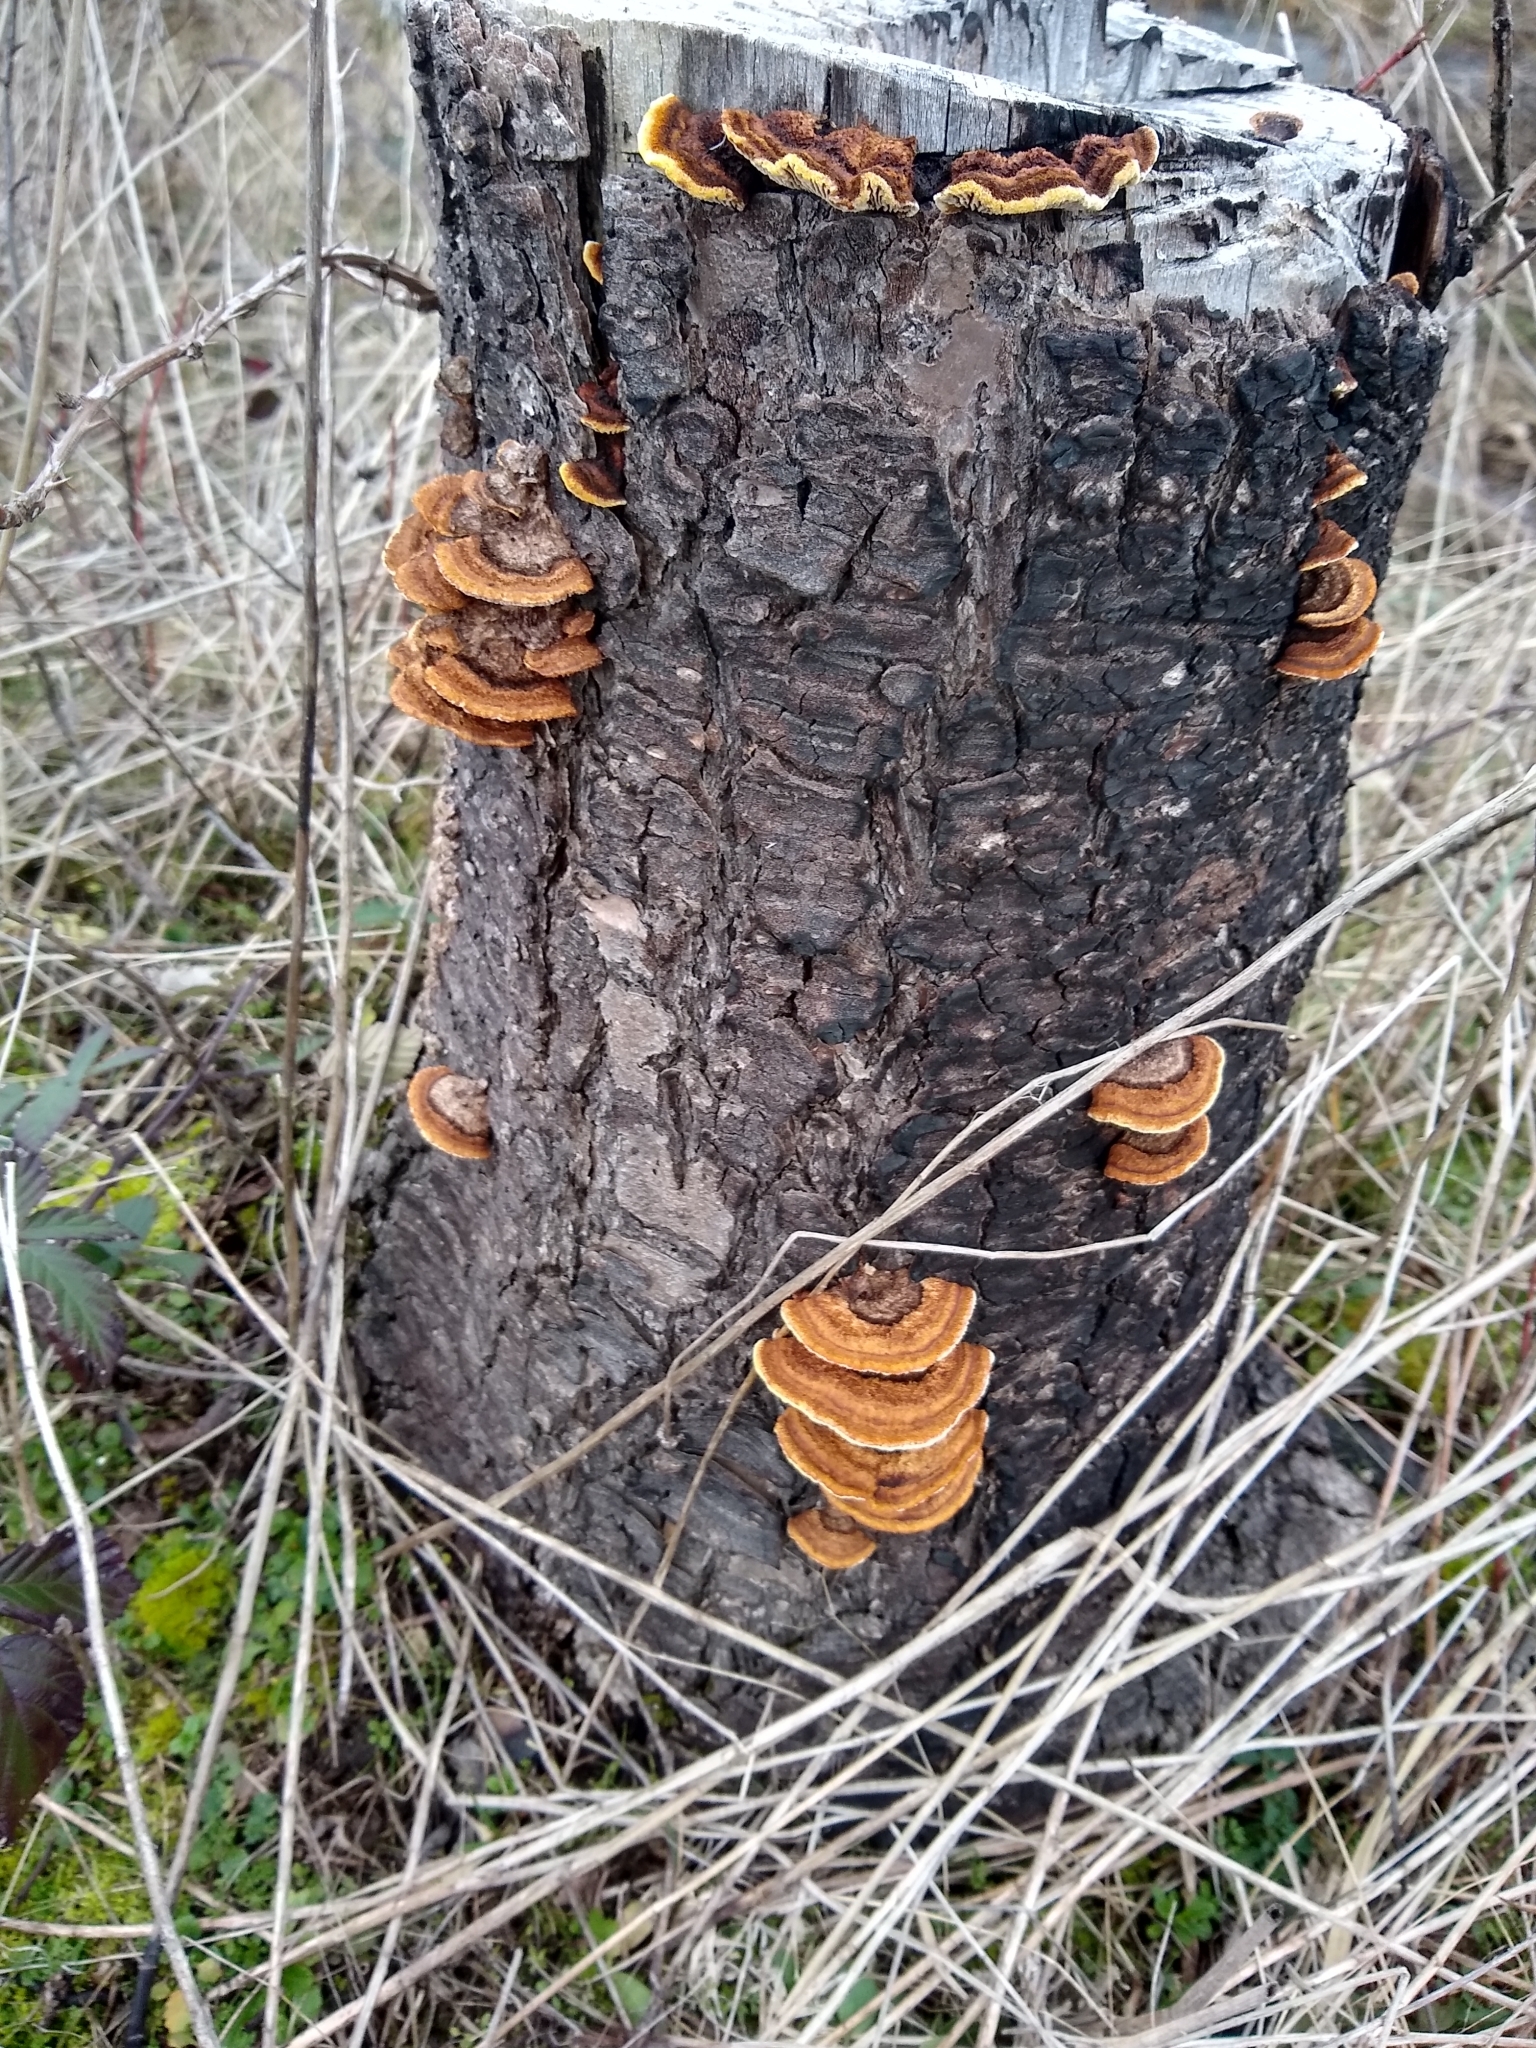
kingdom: Fungi
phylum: Basidiomycota
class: Agaricomycetes
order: Gloeophyllales
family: Gloeophyllaceae
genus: Gloeophyllum
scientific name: Gloeophyllum sepiarium
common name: Conifer mazegill
